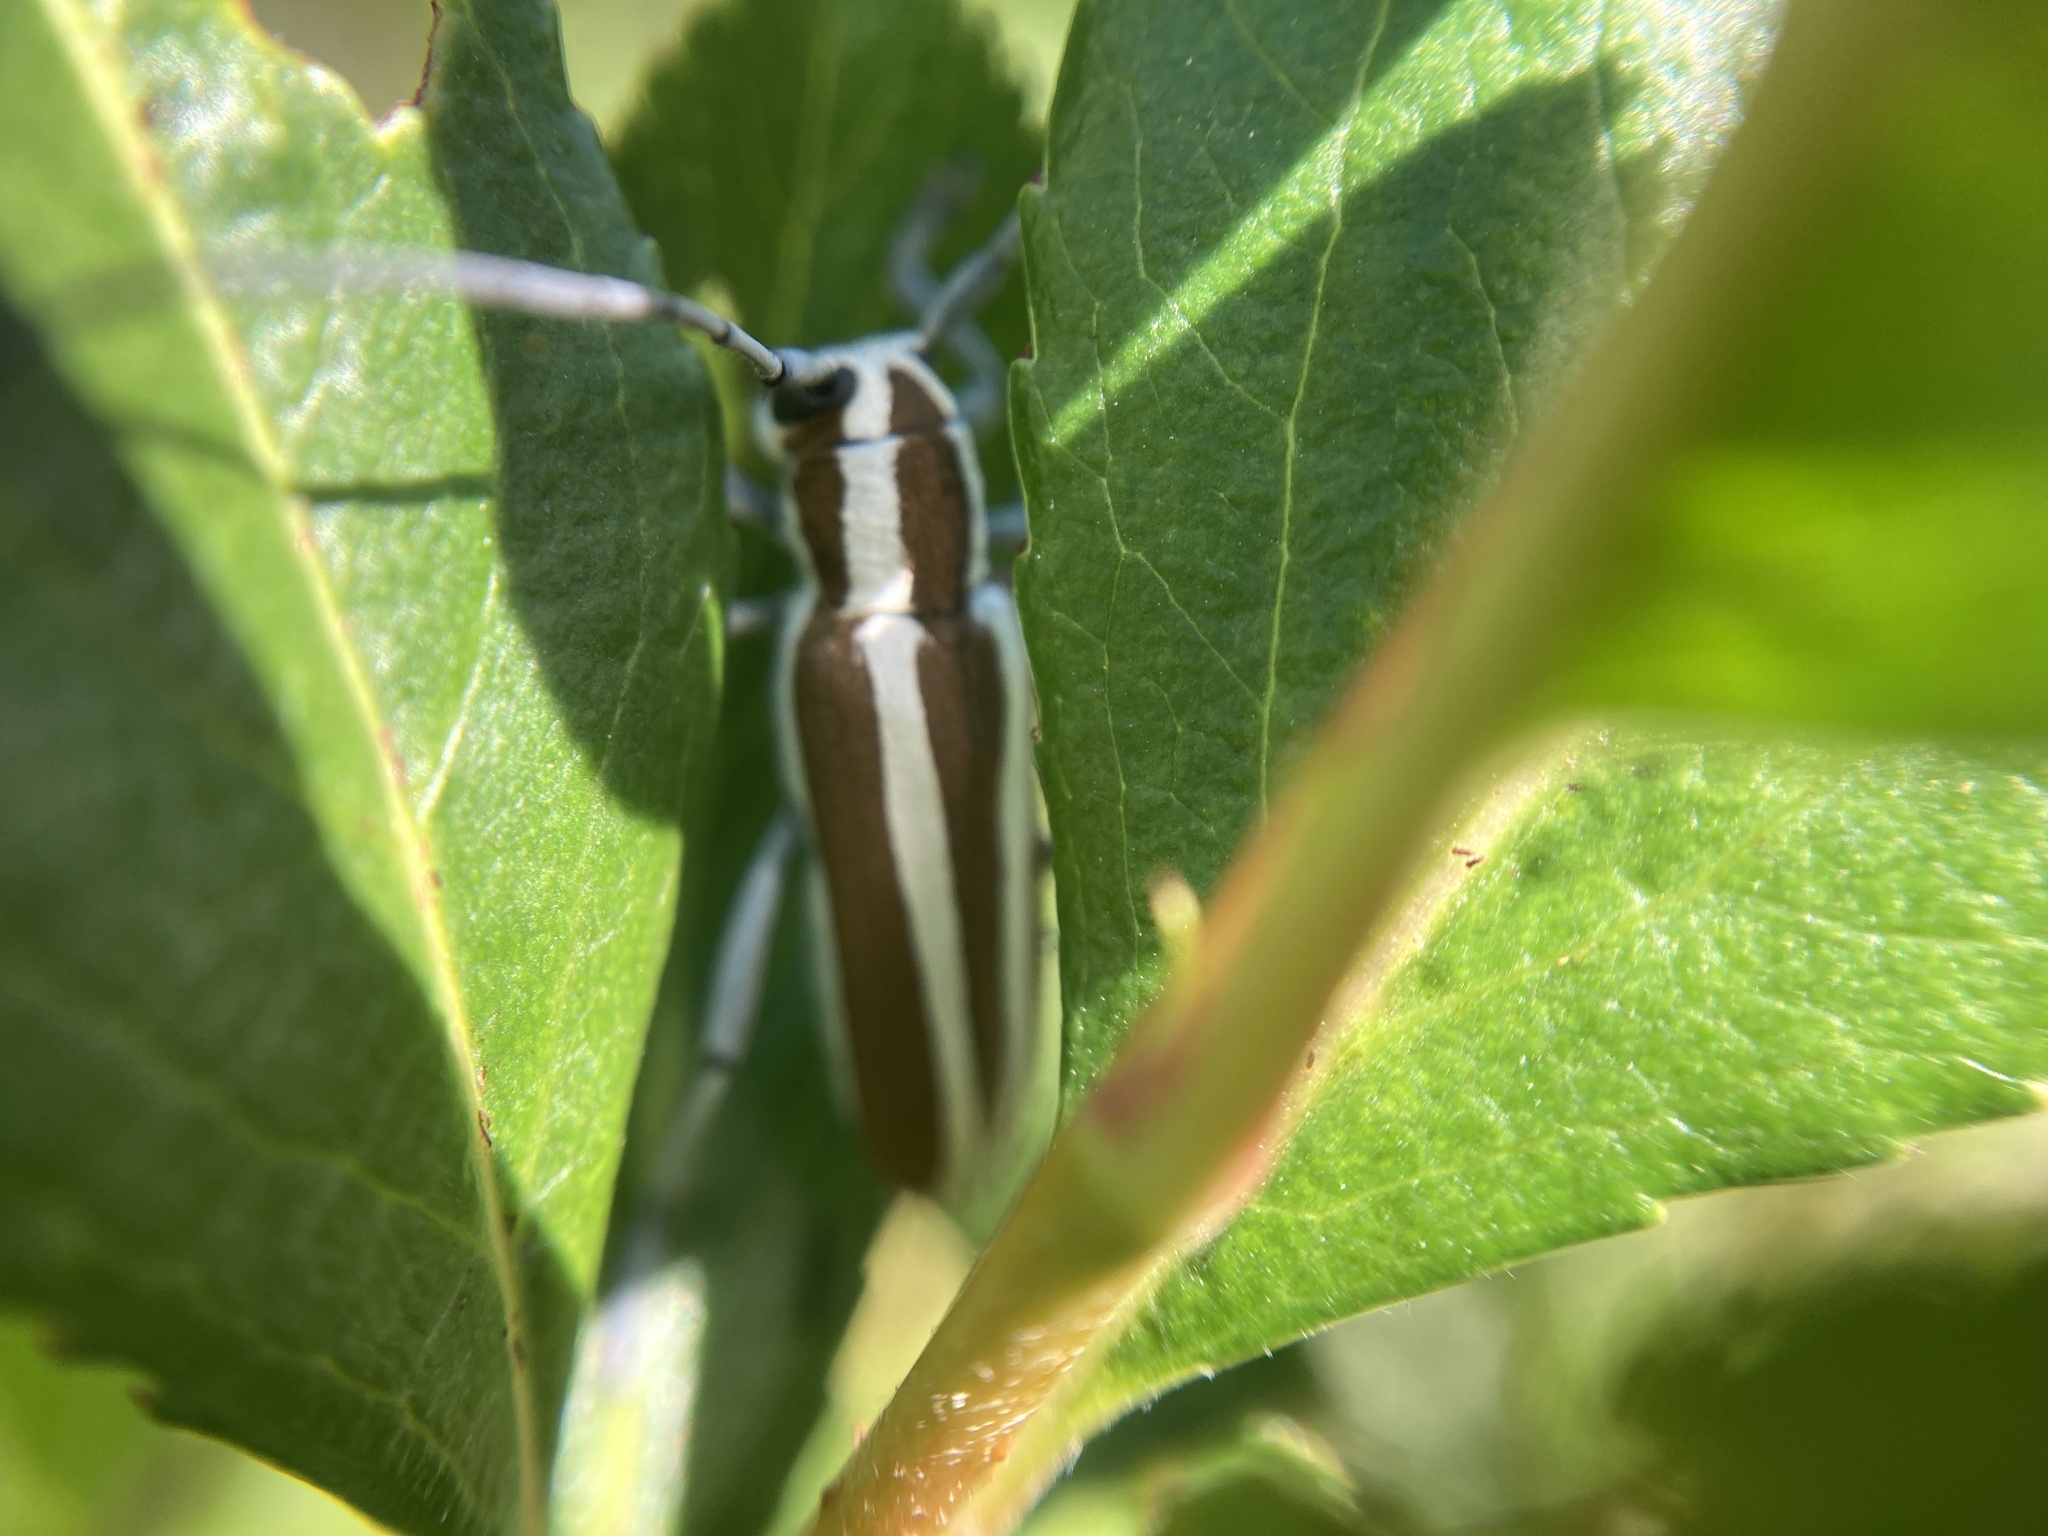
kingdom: Animalia
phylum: Arthropoda
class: Insecta
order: Coleoptera
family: Cerambycidae
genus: Saperda
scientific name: Saperda candida
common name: Round-headed borer
